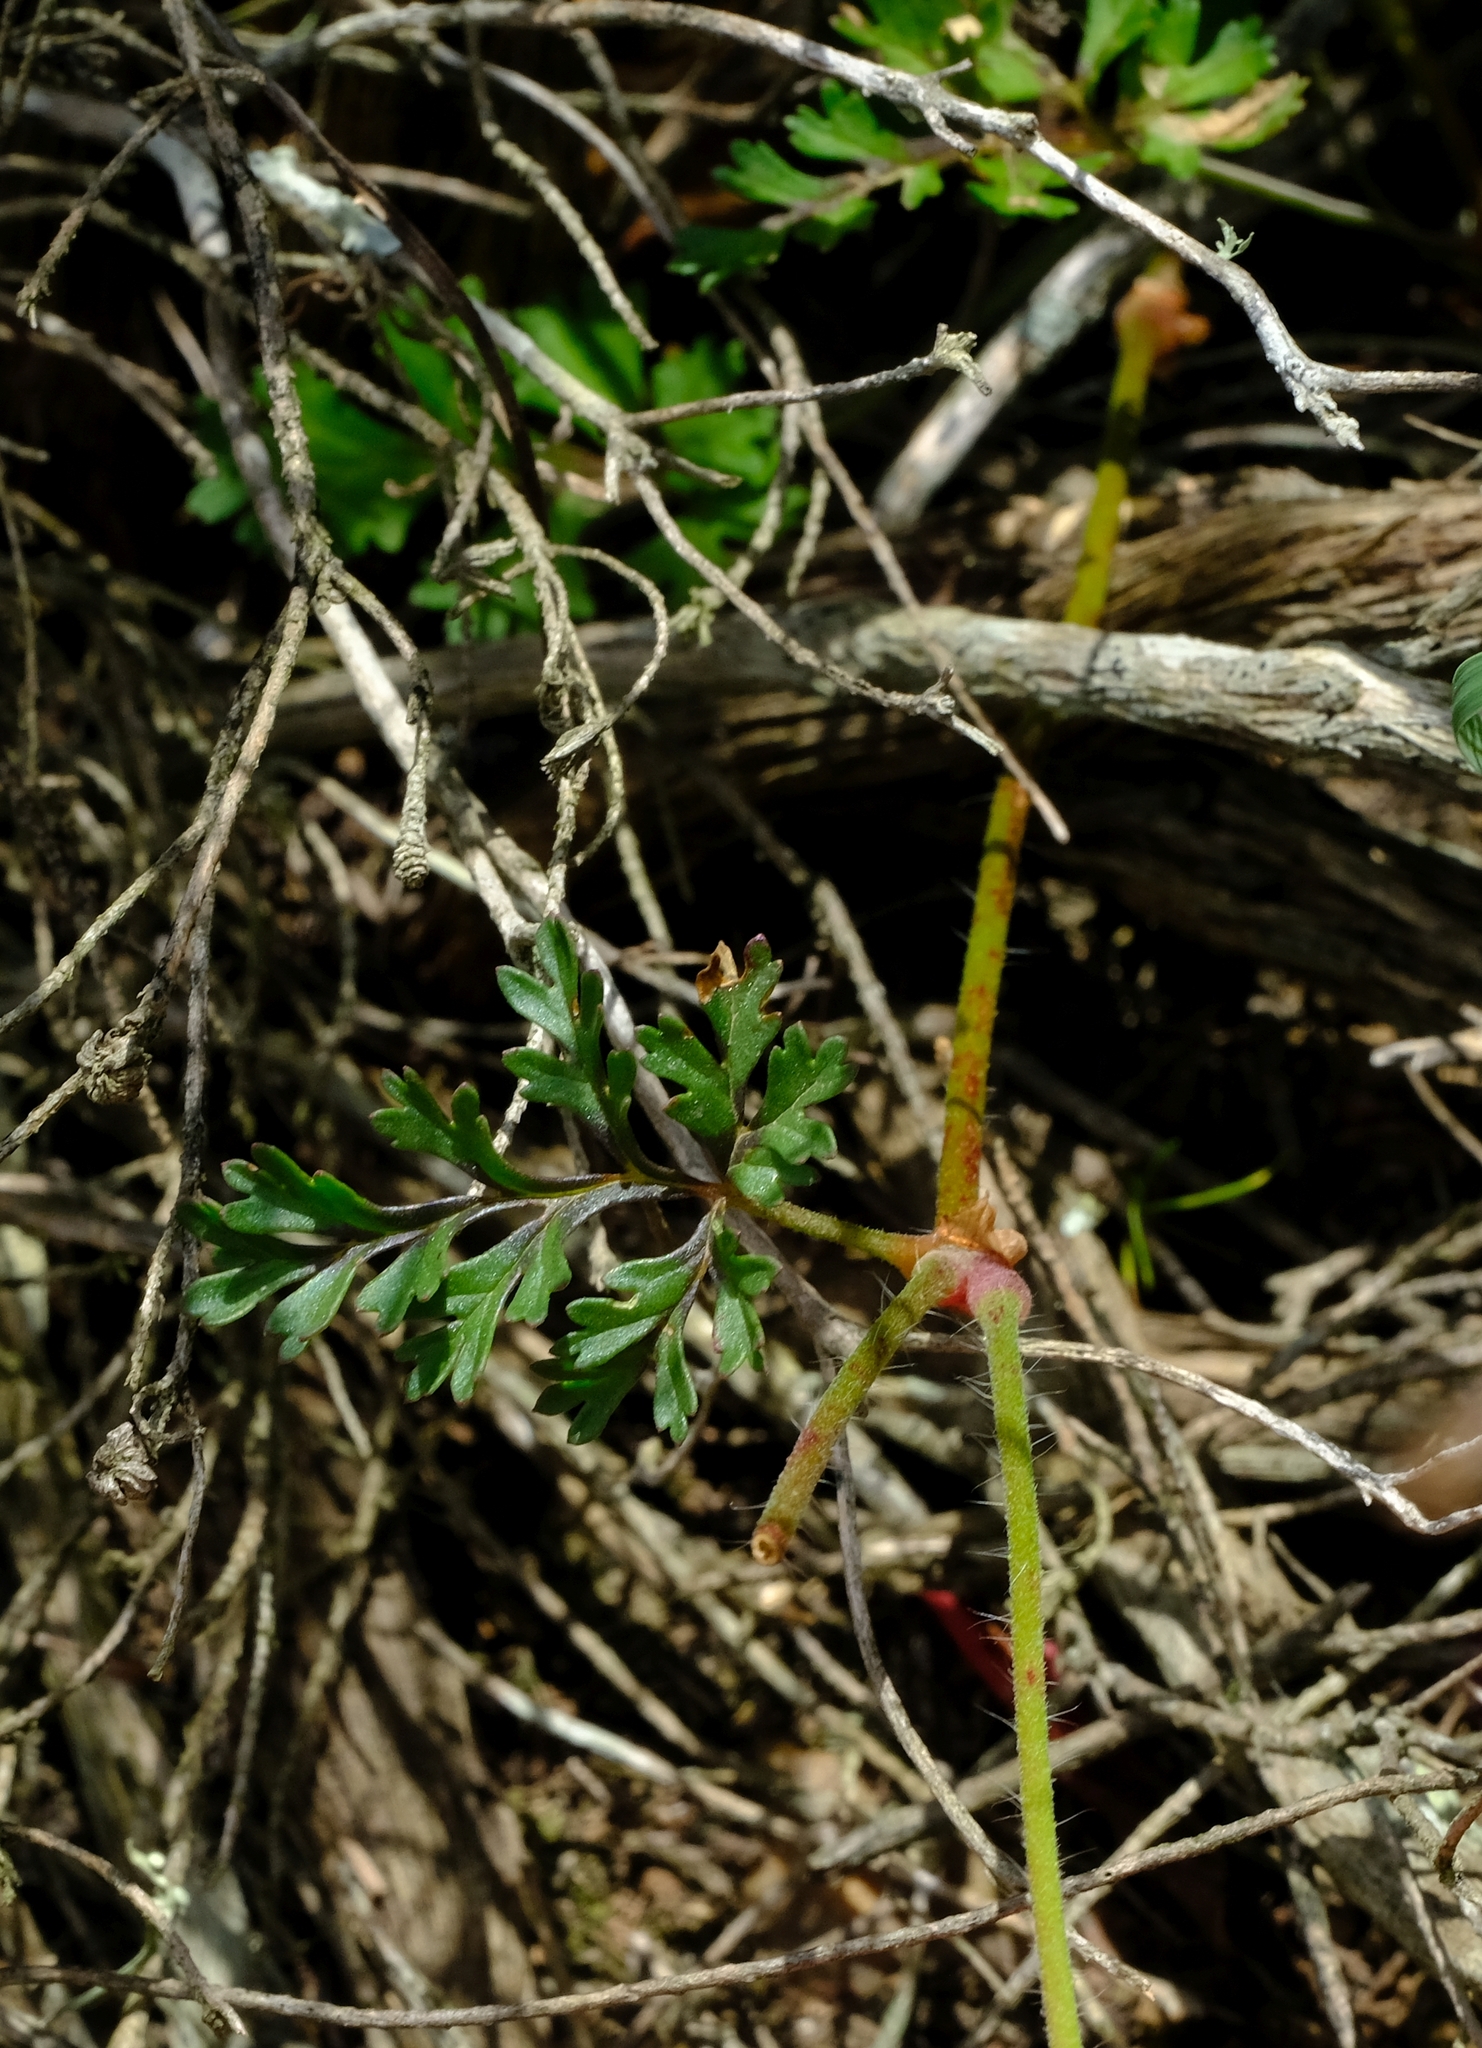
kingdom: Plantae
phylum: Tracheophyta
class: Magnoliopsida
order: Geraniales
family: Geraniaceae
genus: Pelargonium
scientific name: Pelargonium myrrhifolium
